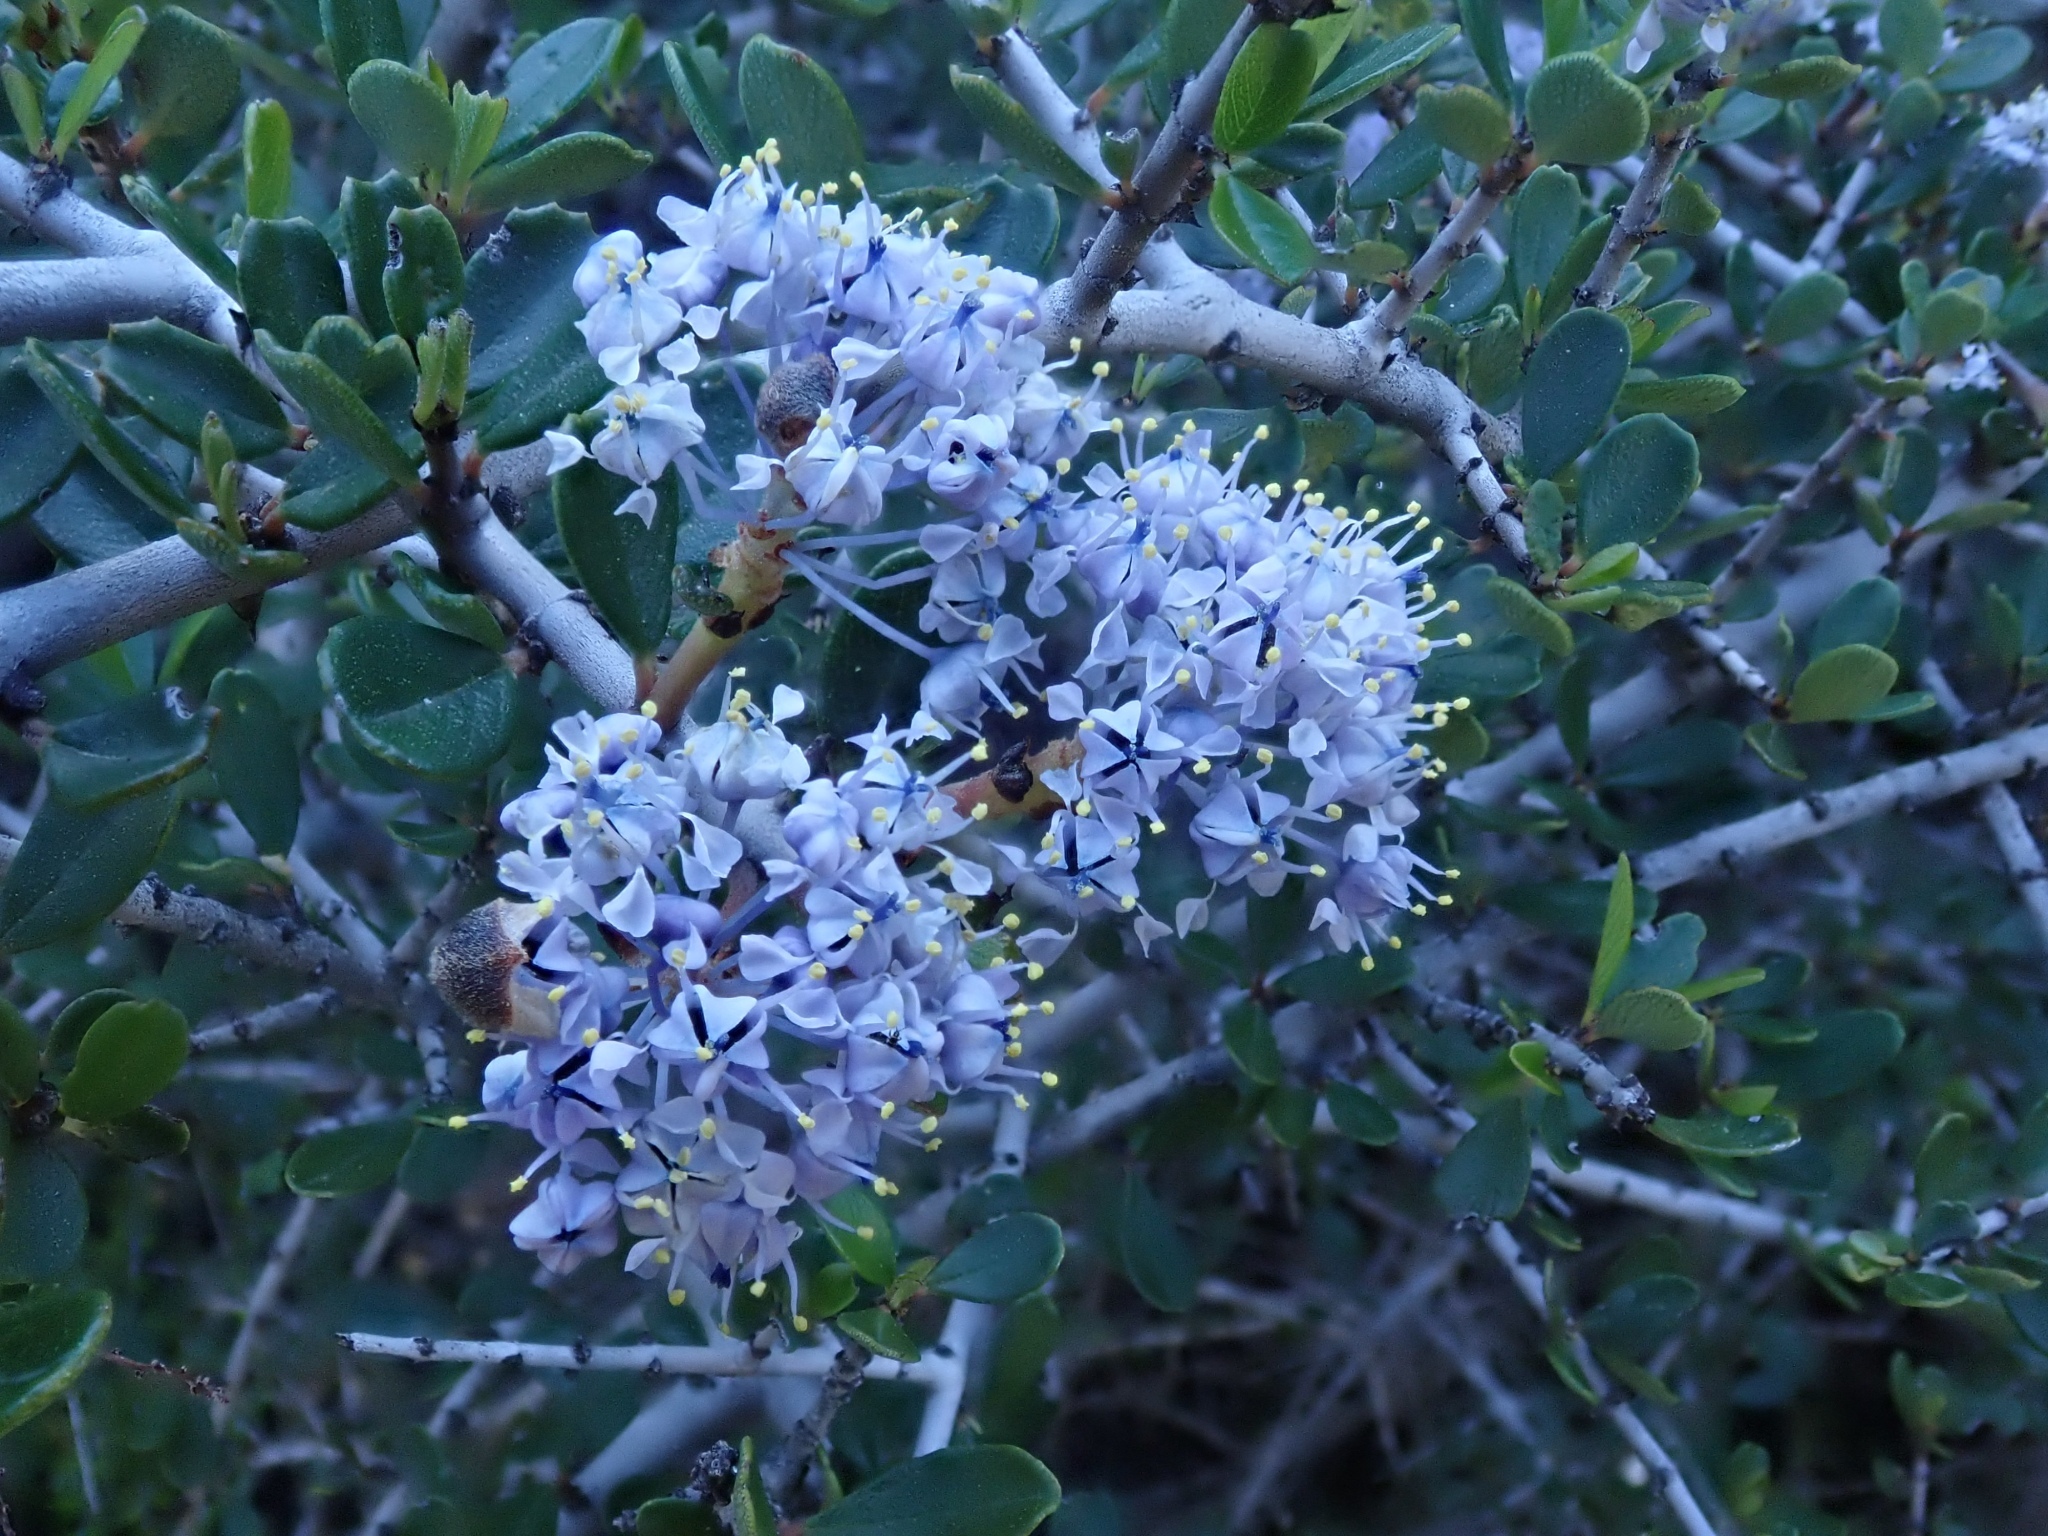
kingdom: Plantae
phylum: Tracheophyta
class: Magnoliopsida
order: Rosales
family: Rhamnaceae
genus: Ceanothus
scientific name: Ceanothus cuneatus
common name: Cuneate ceanothus
